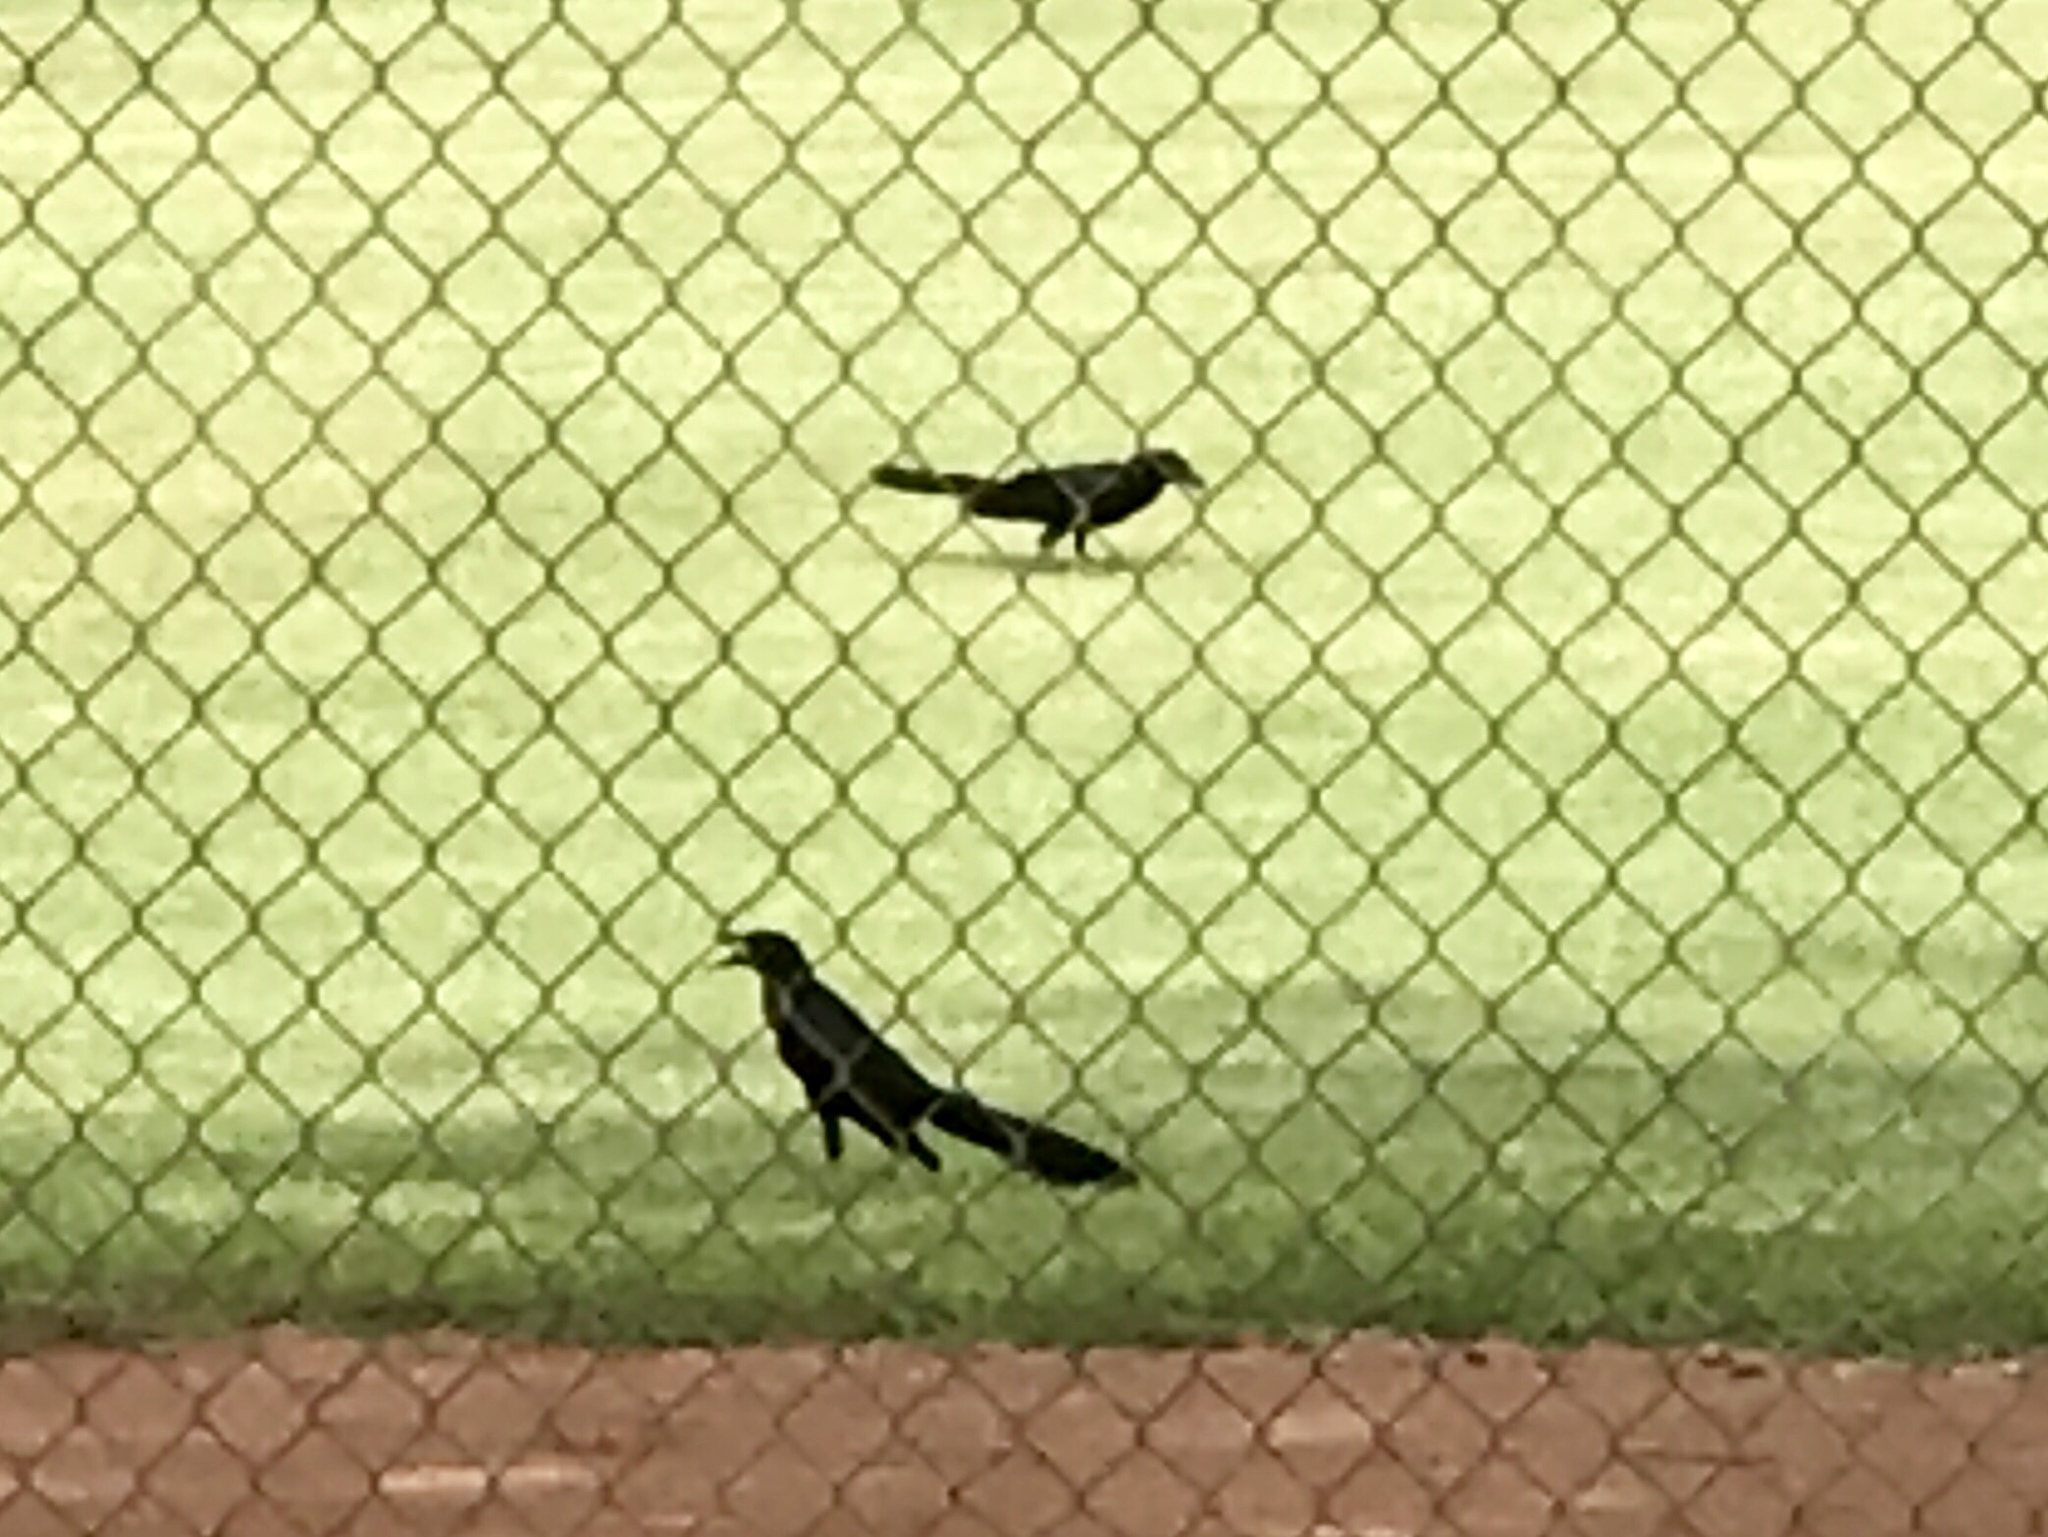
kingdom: Animalia
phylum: Chordata
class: Aves
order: Passeriformes
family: Icteridae
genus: Quiscalus
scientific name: Quiscalus mexicanus
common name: Great-tailed grackle
